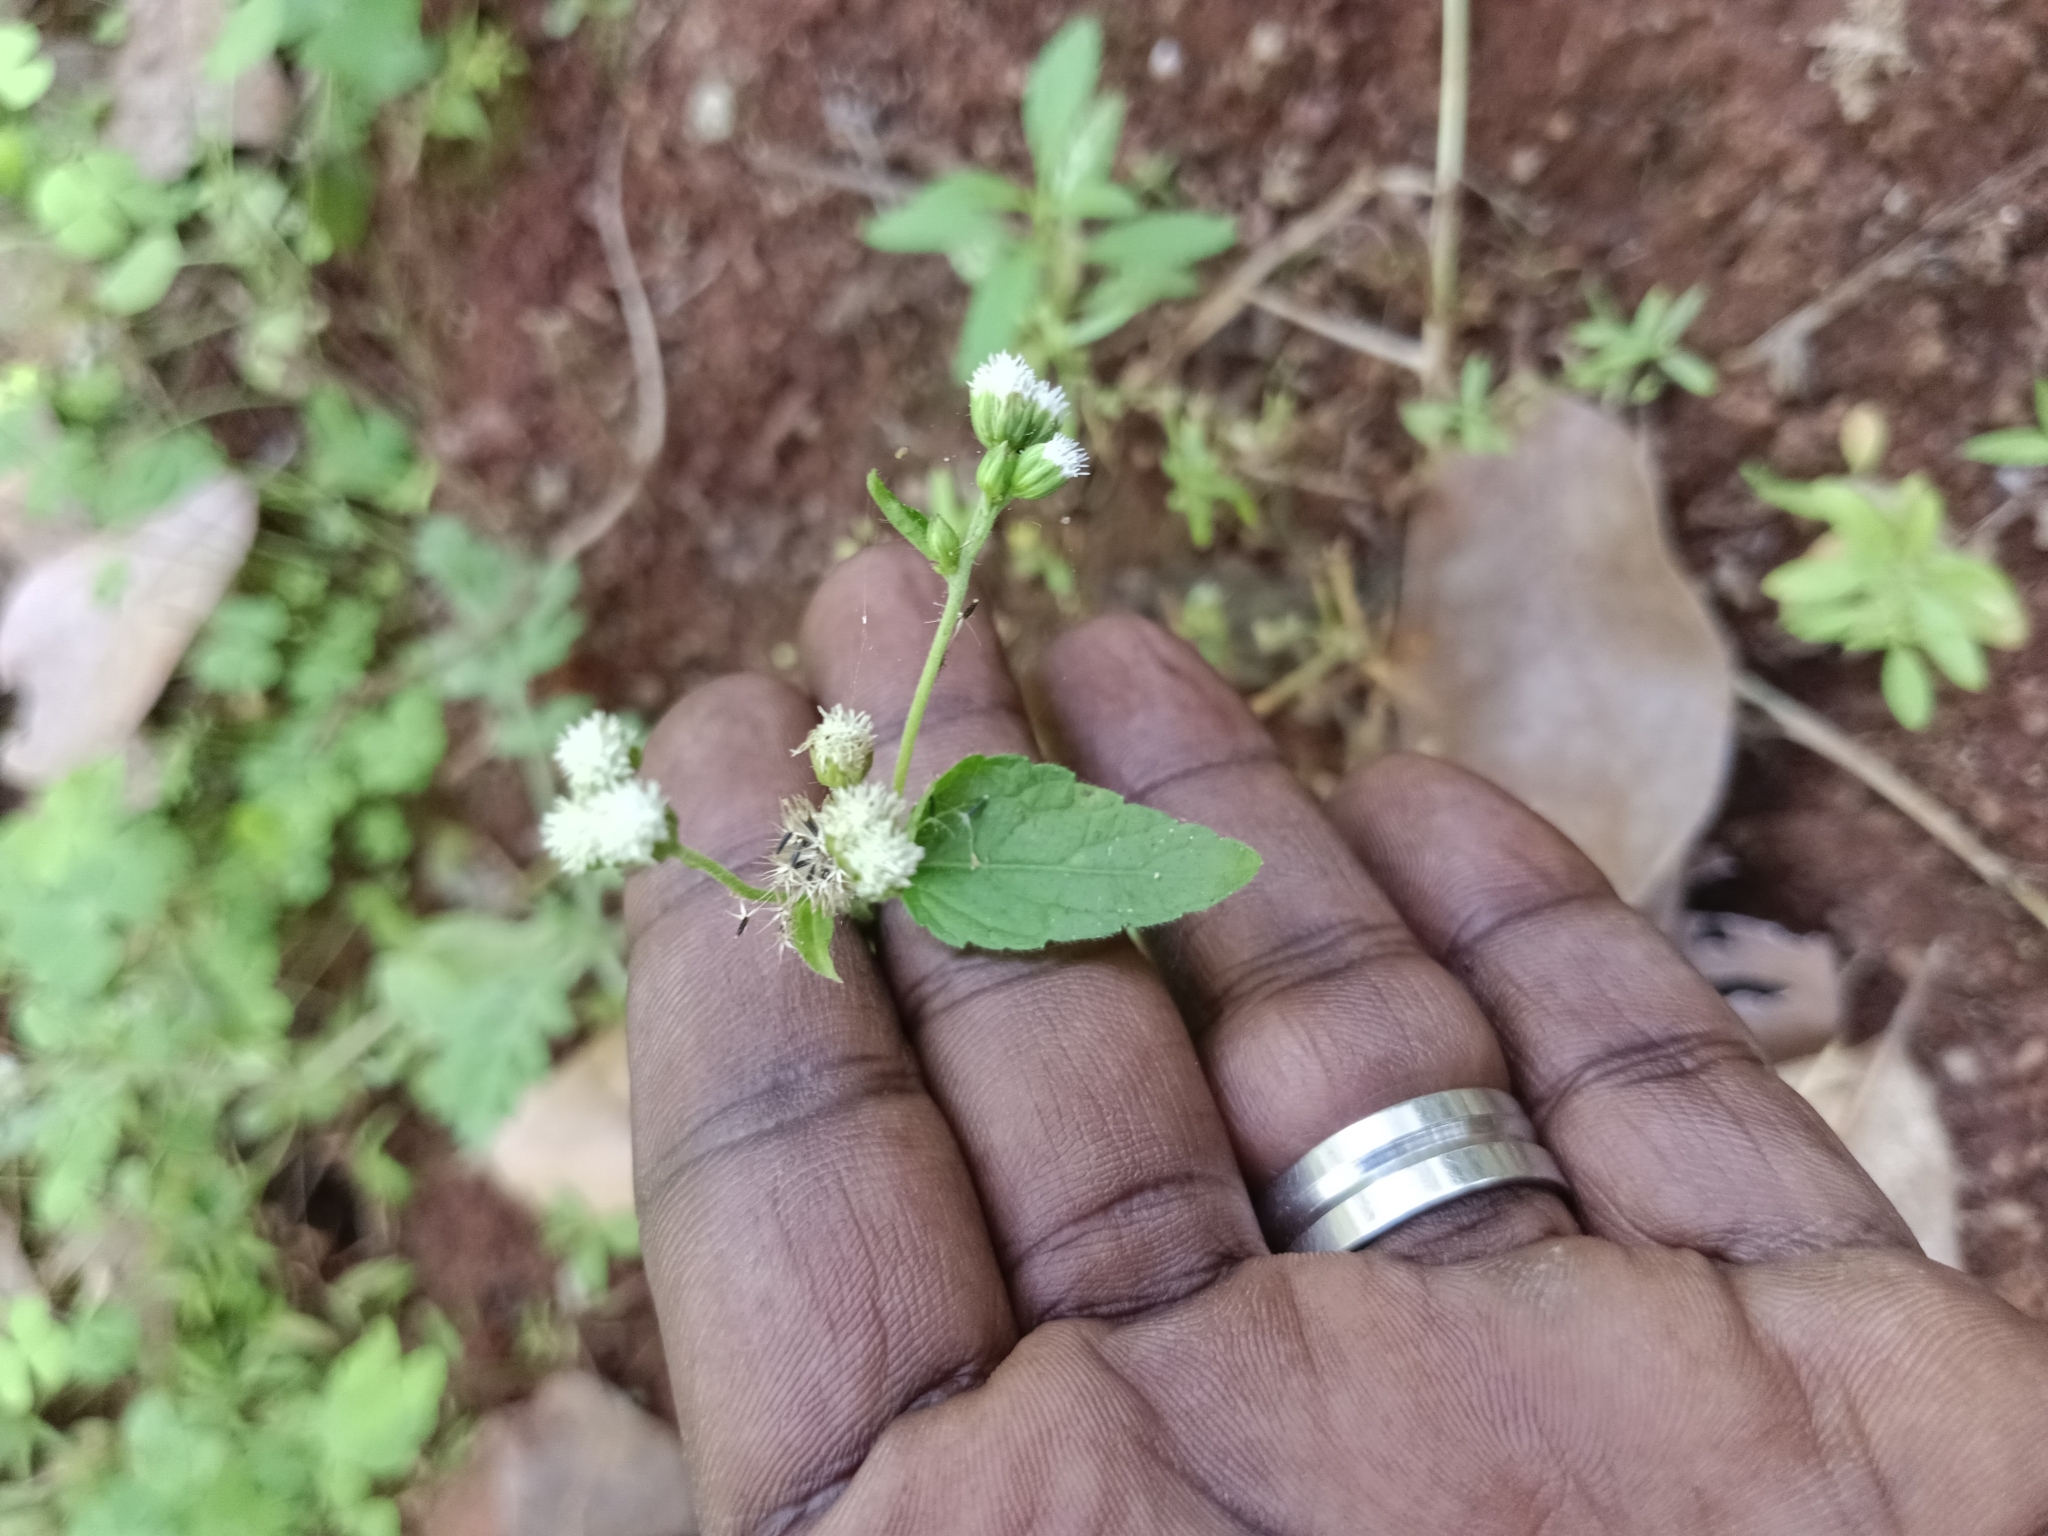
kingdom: Plantae
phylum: Tracheophyta
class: Magnoliopsida
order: Asterales
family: Asteraceae
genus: Ageratum
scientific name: Ageratum conyzoides
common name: Tropical whiteweed
